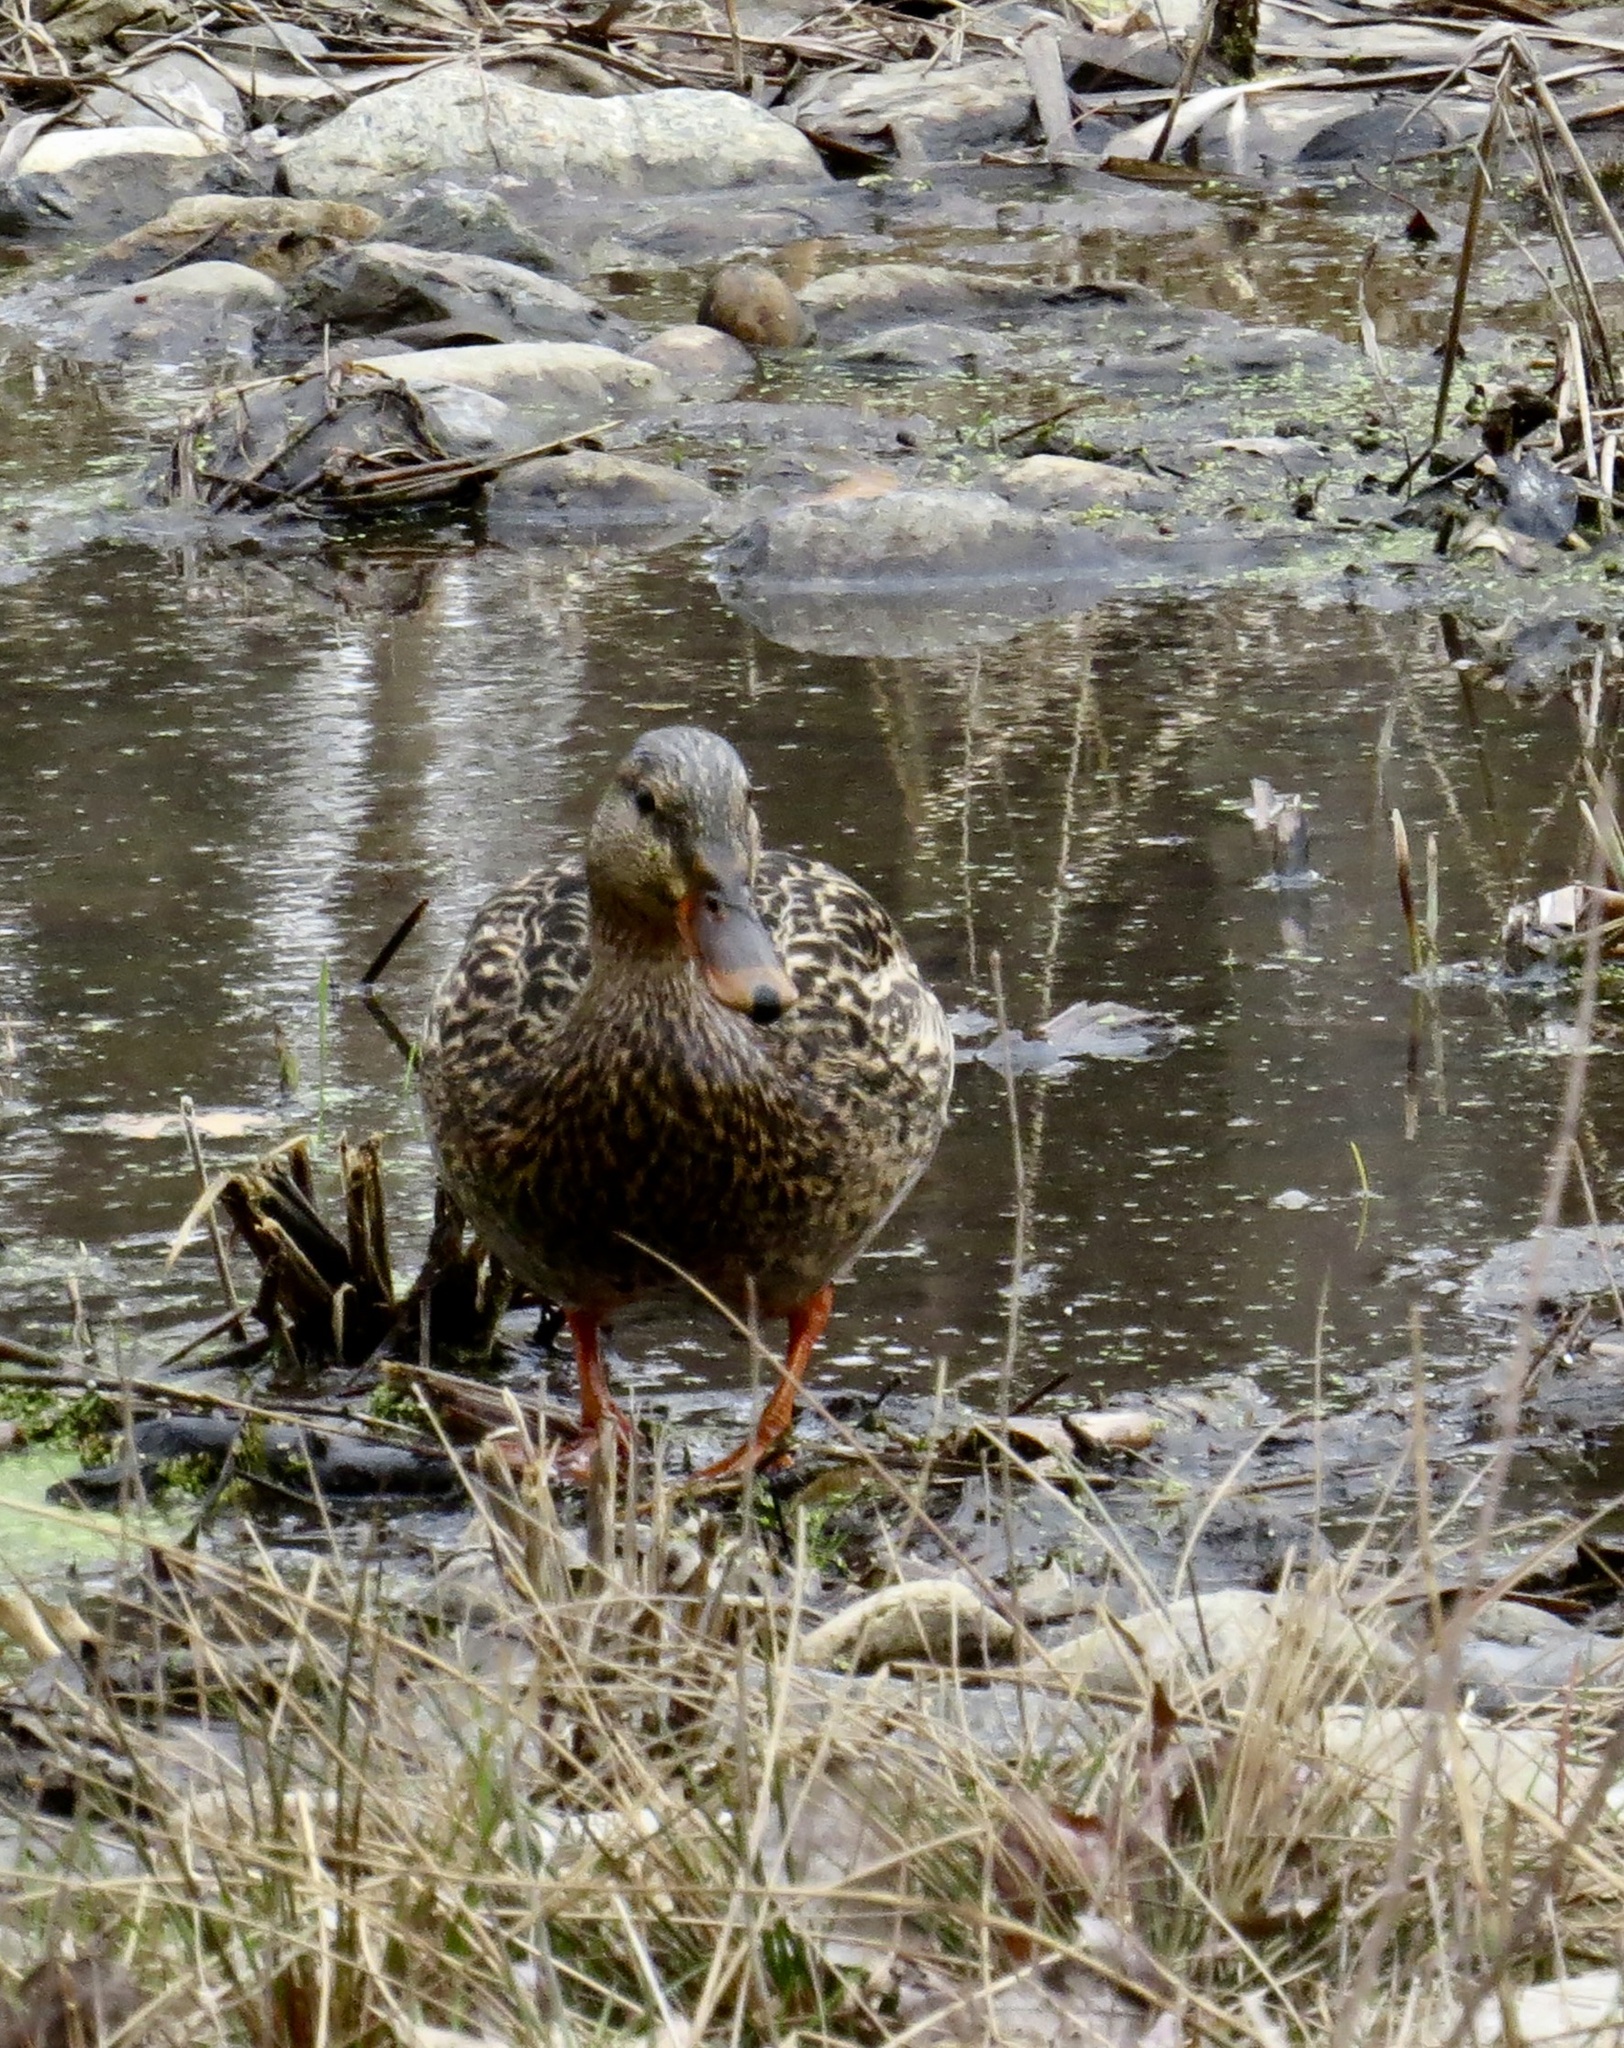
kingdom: Animalia
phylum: Chordata
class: Aves
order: Anseriformes
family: Anatidae
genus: Anas
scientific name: Anas platyrhynchos
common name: Mallard
